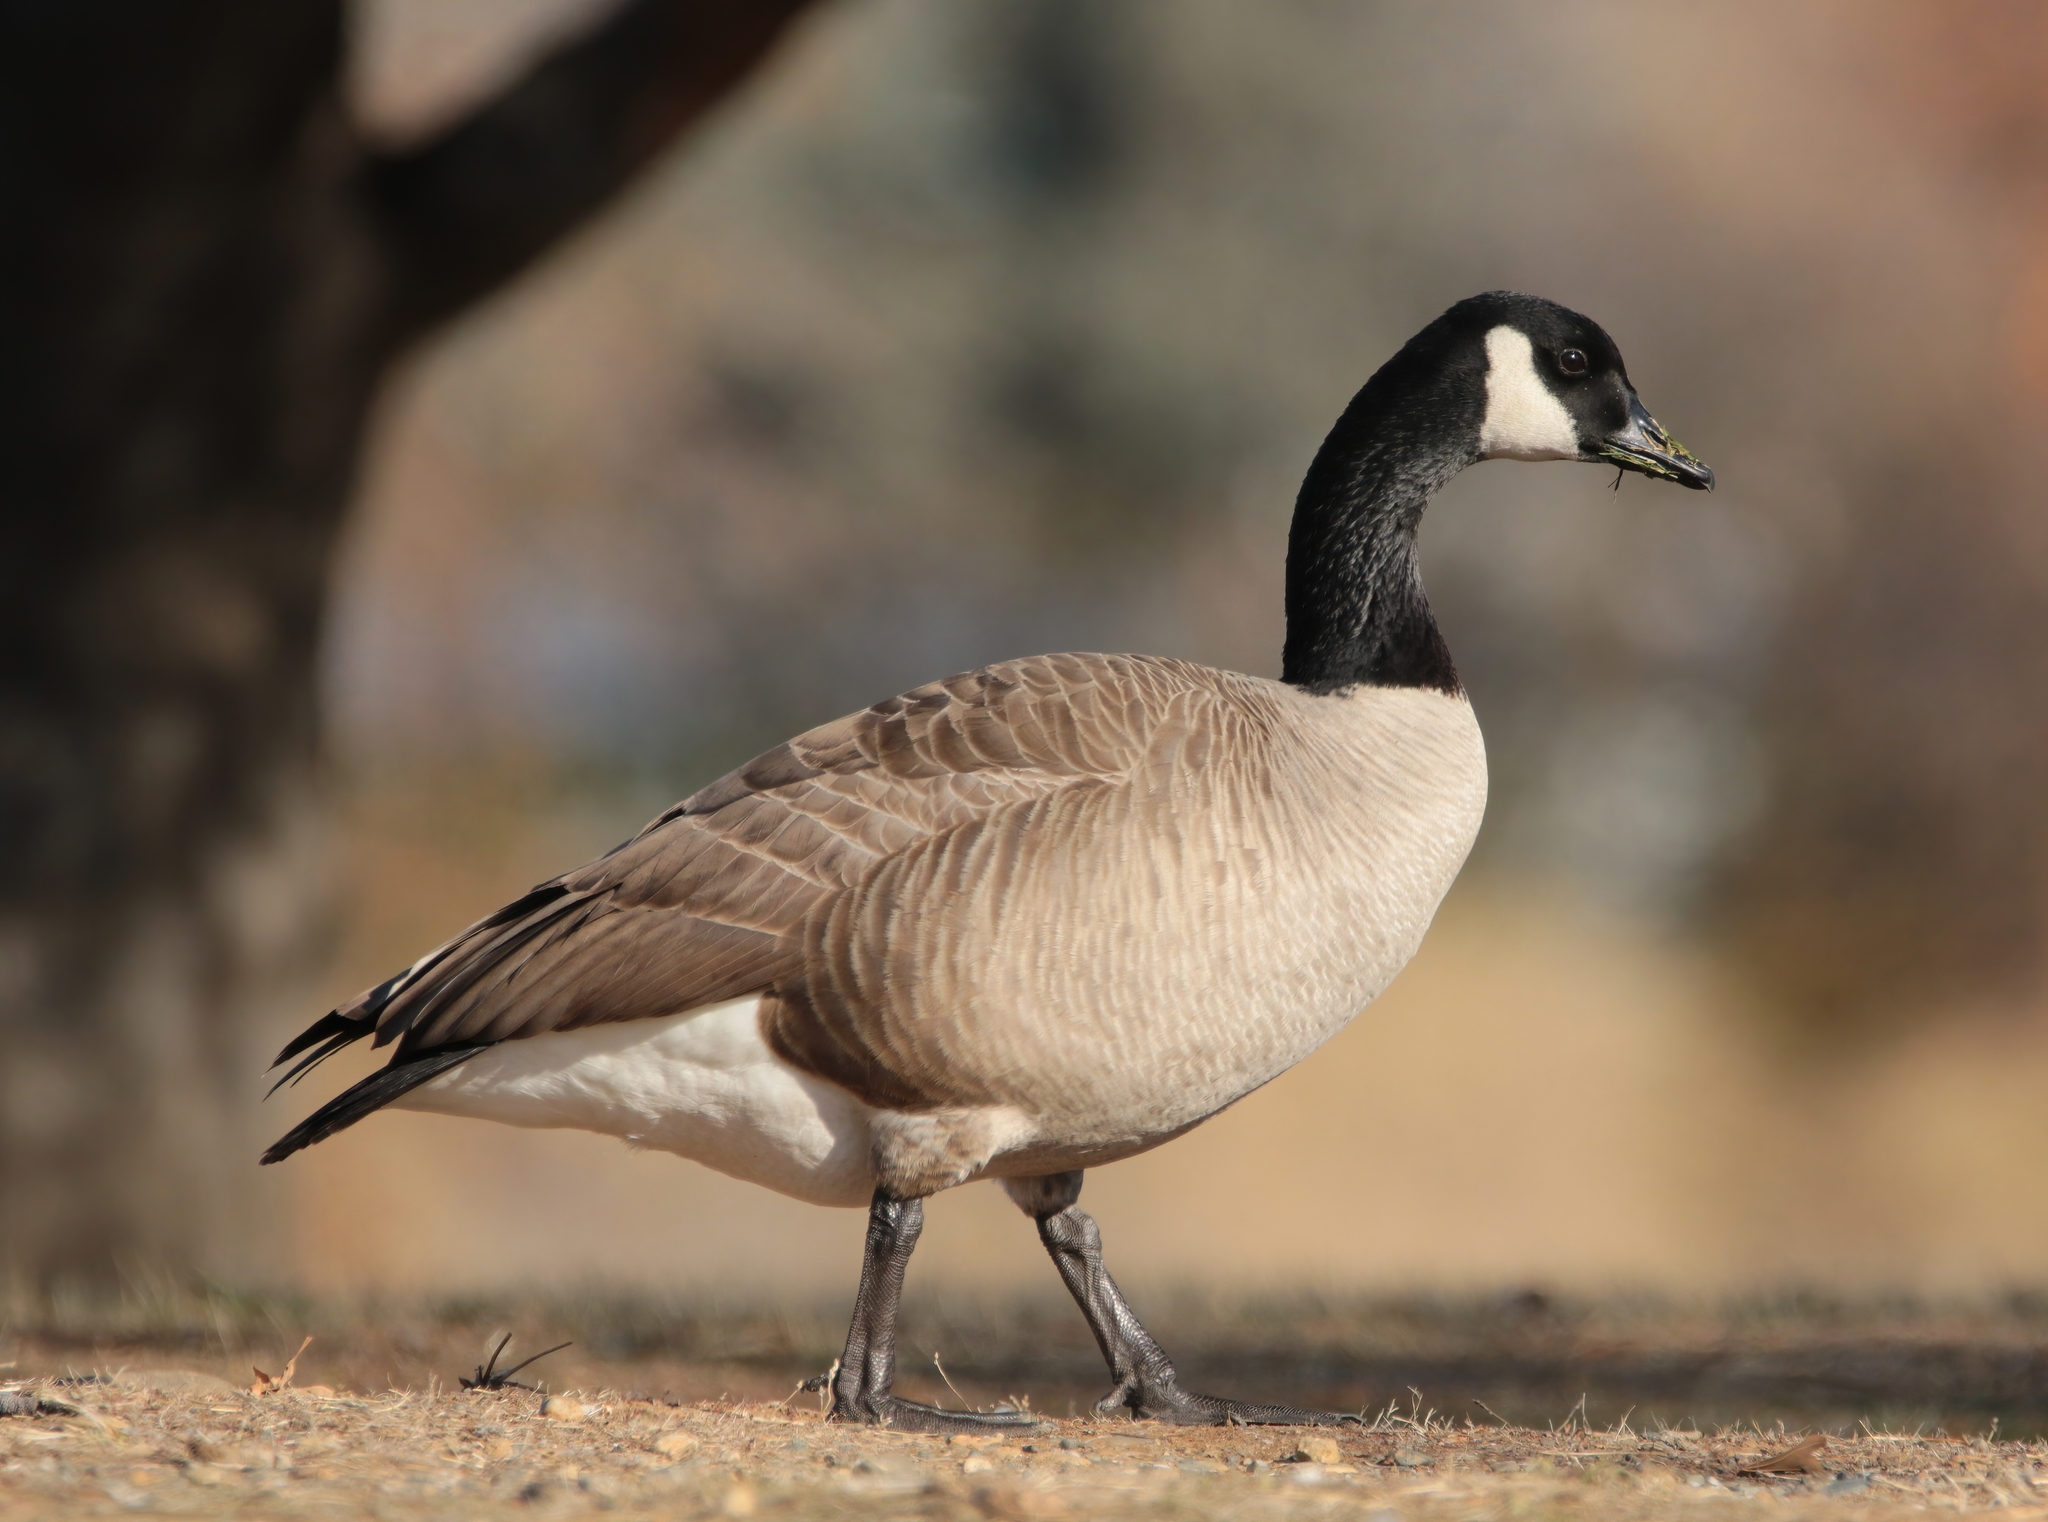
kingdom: Animalia
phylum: Chordata
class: Aves
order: Anseriformes
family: Anatidae
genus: Branta
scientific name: Branta canadensis
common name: Canada goose
